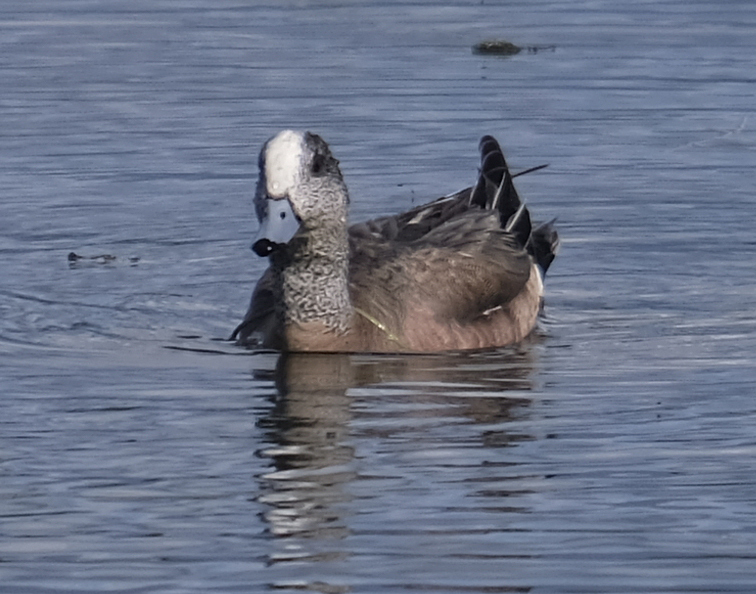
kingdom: Animalia
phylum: Chordata
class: Aves
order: Anseriformes
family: Anatidae
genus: Mareca
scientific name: Mareca americana
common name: American wigeon
